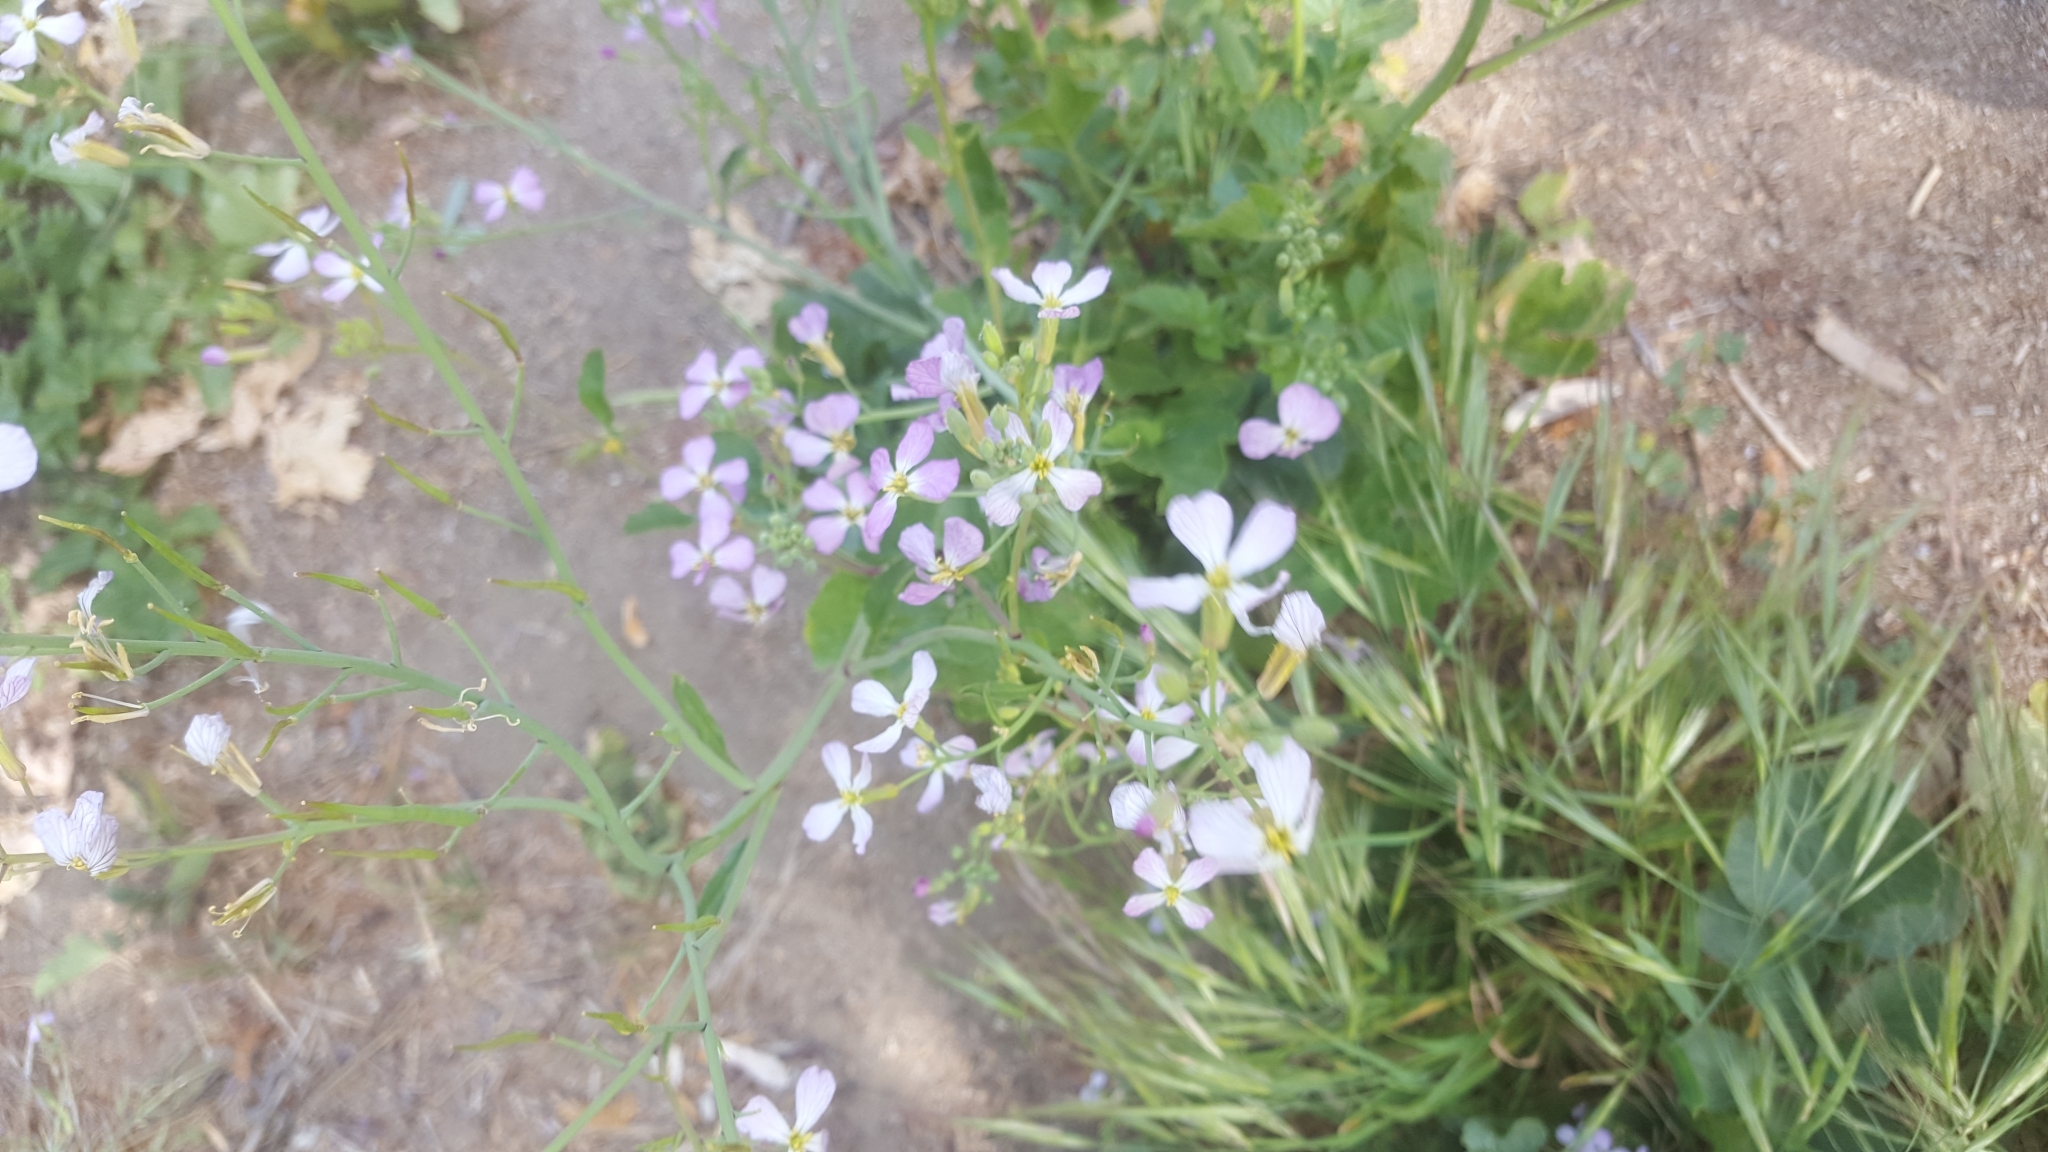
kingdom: Plantae
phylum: Tracheophyta
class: Magnoliopsida
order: Brassicales
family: Brassicaceae
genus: Raphanus
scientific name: Raphanus sativus
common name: Cultivated radish
